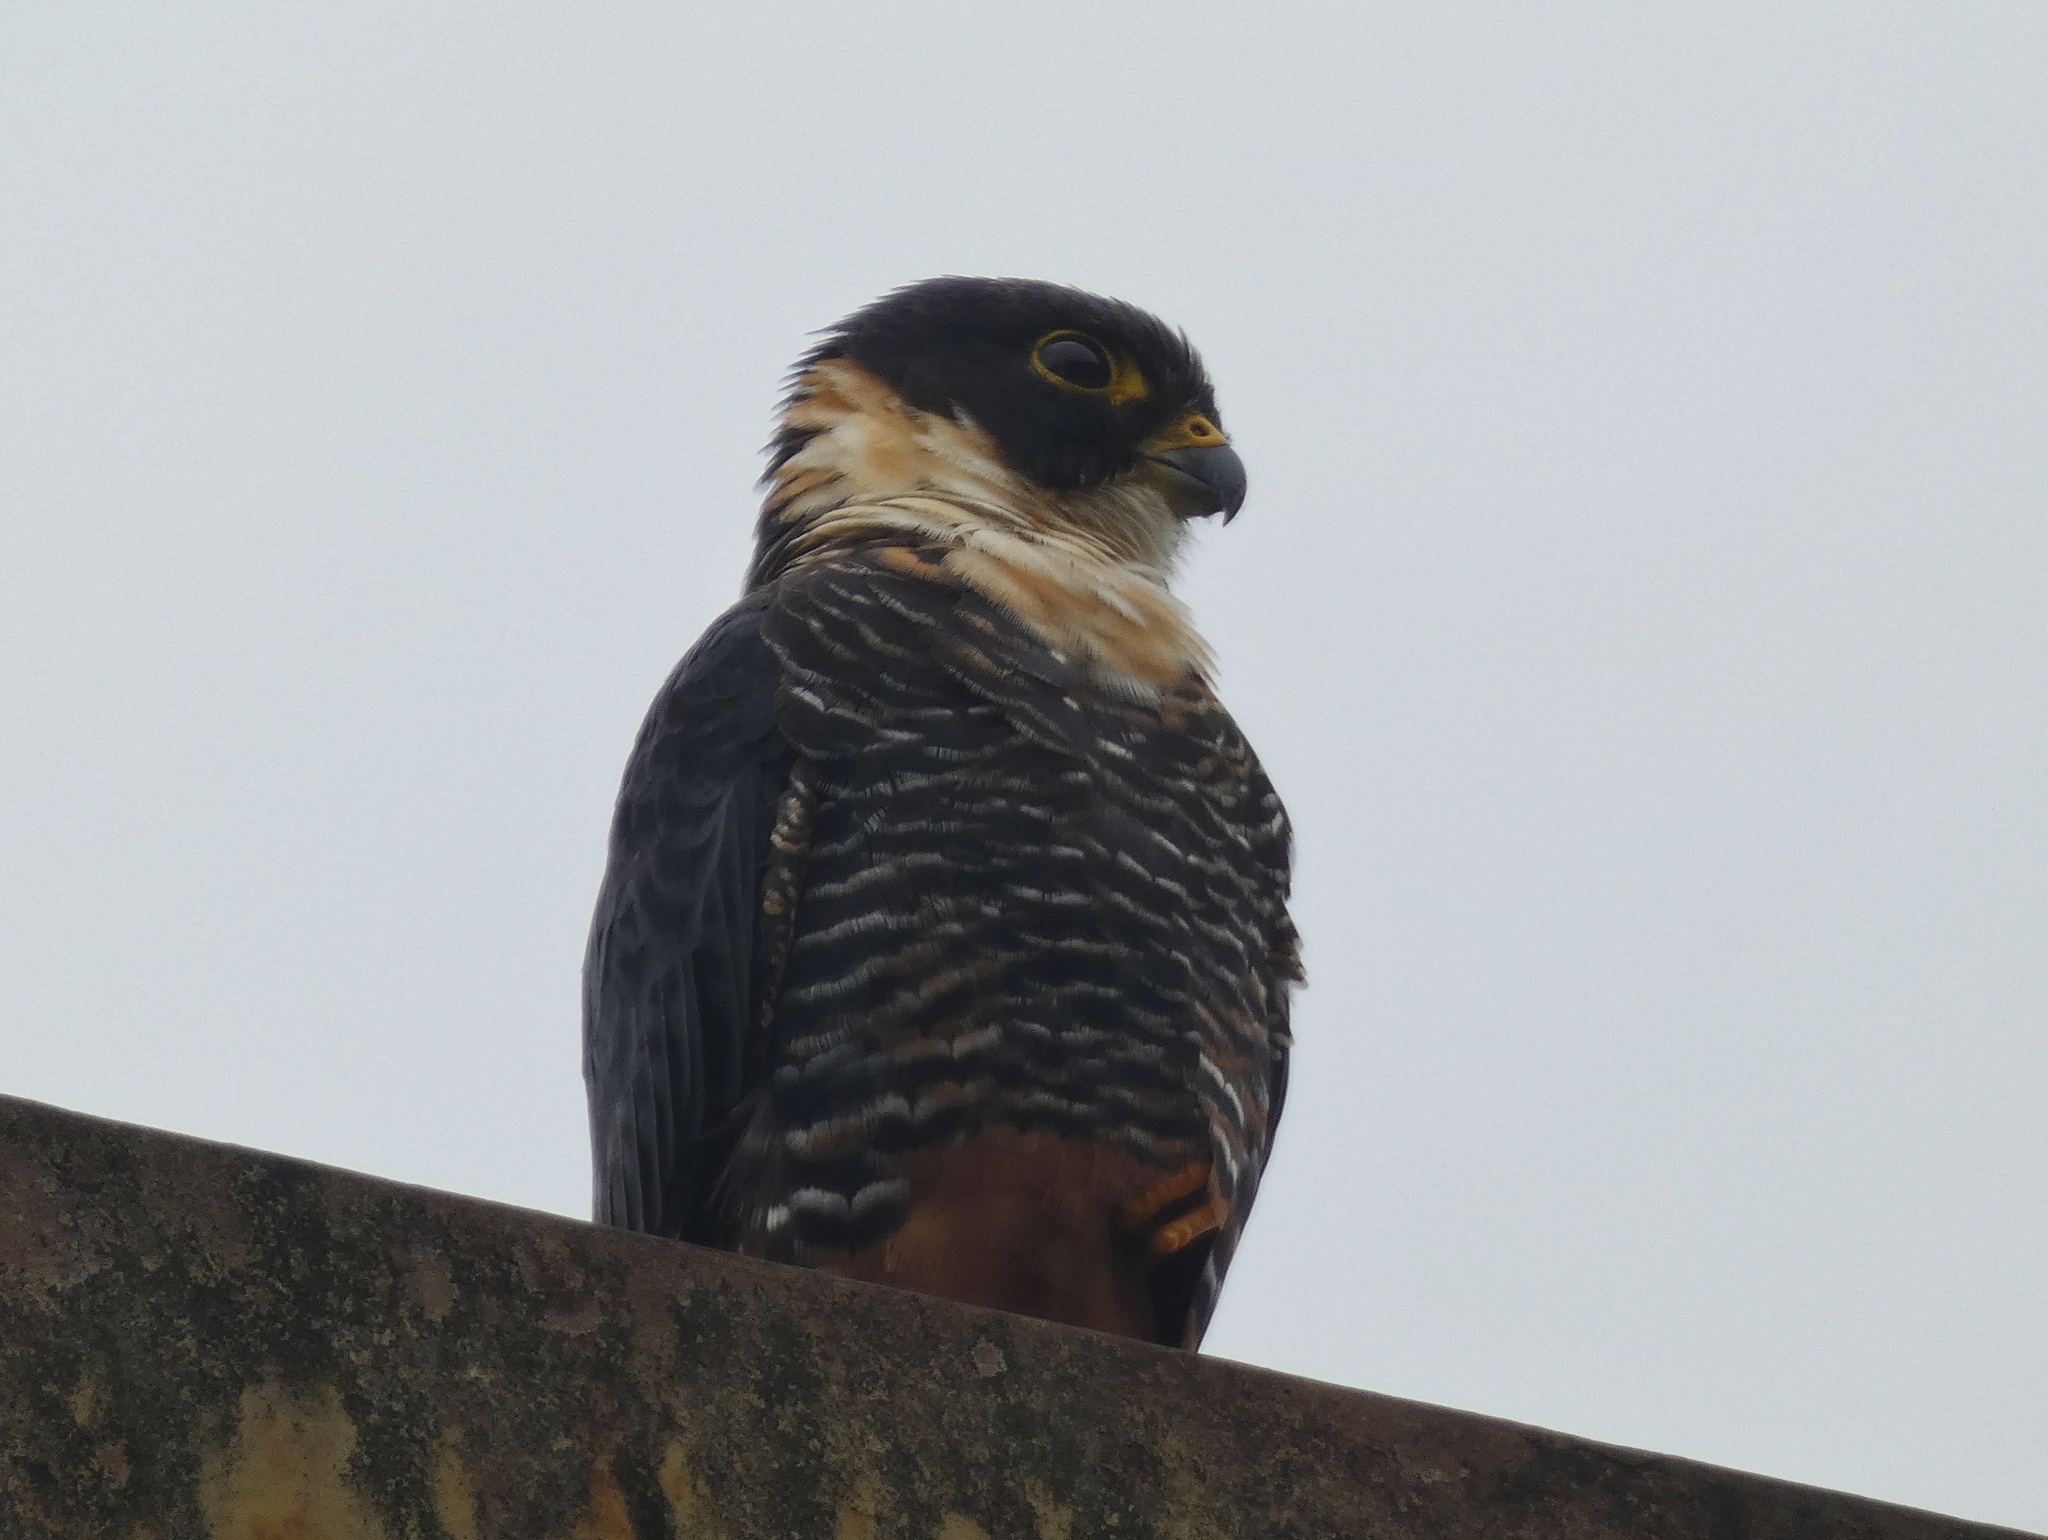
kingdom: Animalia
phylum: Chordata
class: Aves
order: Falconiformes
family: Falconidae
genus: Falco
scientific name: Falco rufigularis
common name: Bat falcon
